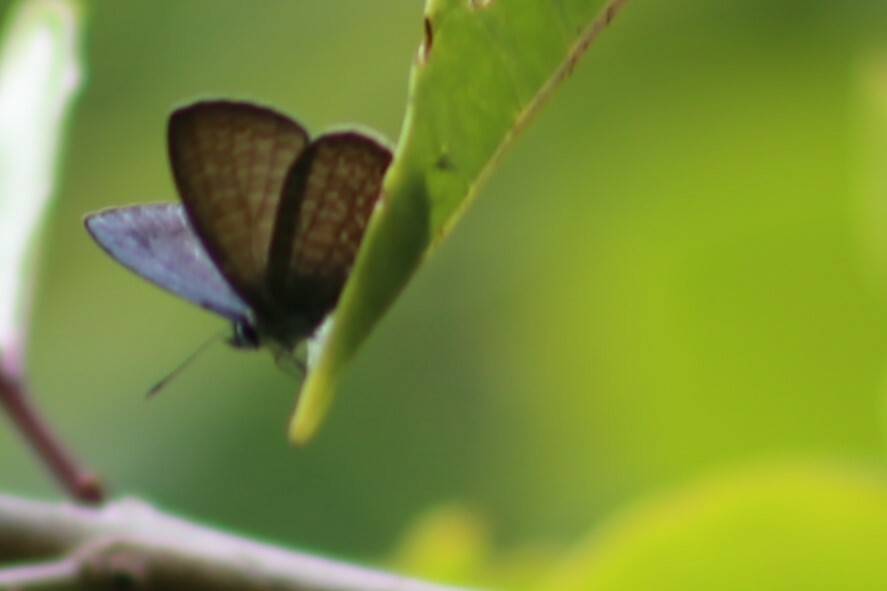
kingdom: Animalia
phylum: Arthropoda
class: Insecta
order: Lepidoptera
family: Lycaenidae
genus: Nacaduba
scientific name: Nacaduba berenice
